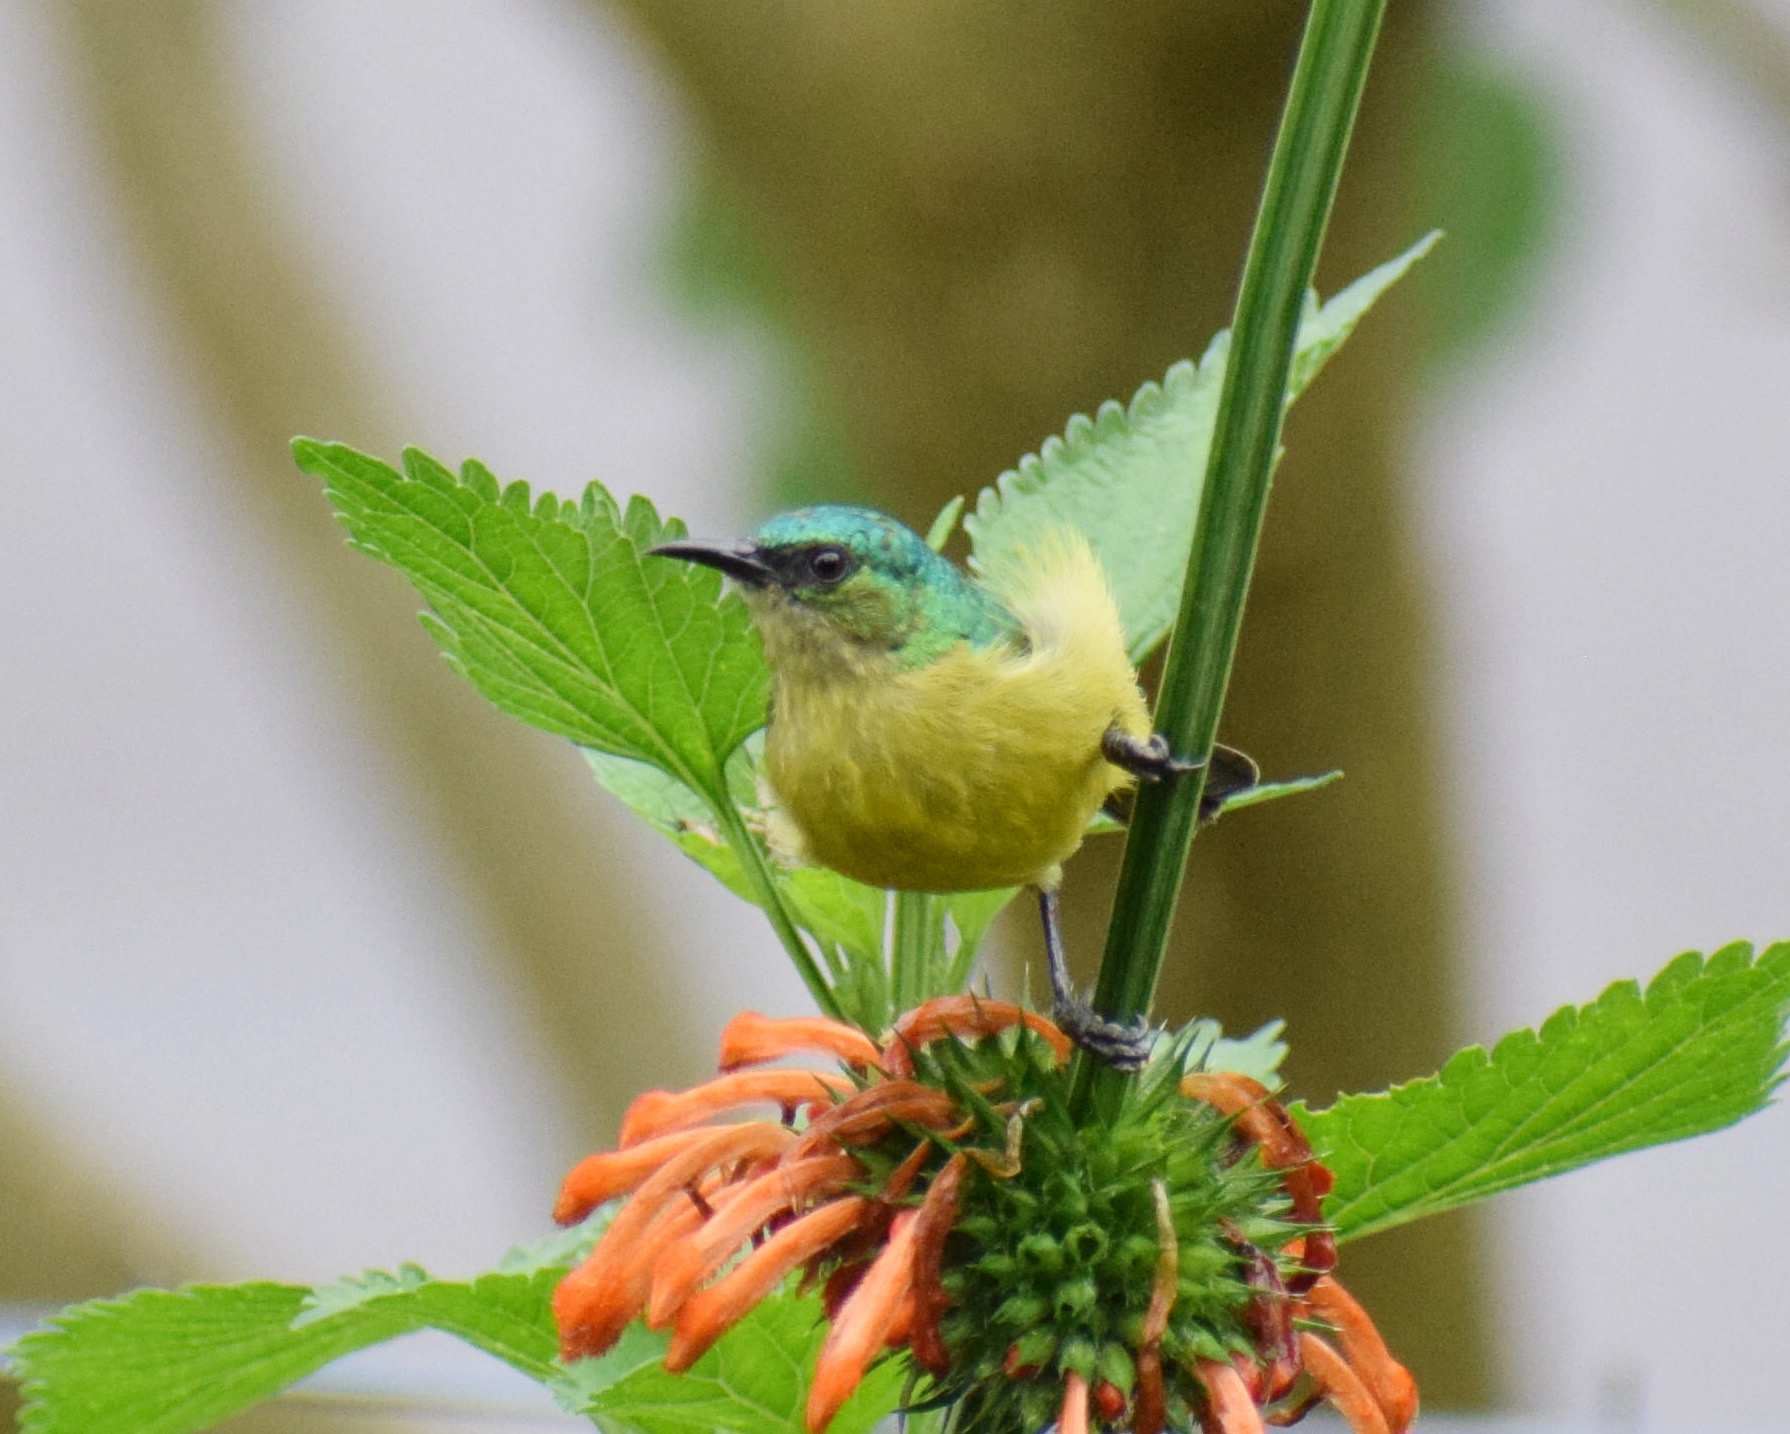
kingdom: Animalia
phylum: Chordata
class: Aves
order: Passeriformes
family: Nectariniidae
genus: Hedydipna
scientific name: Hedydipna collaris
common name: Collared sunbird
